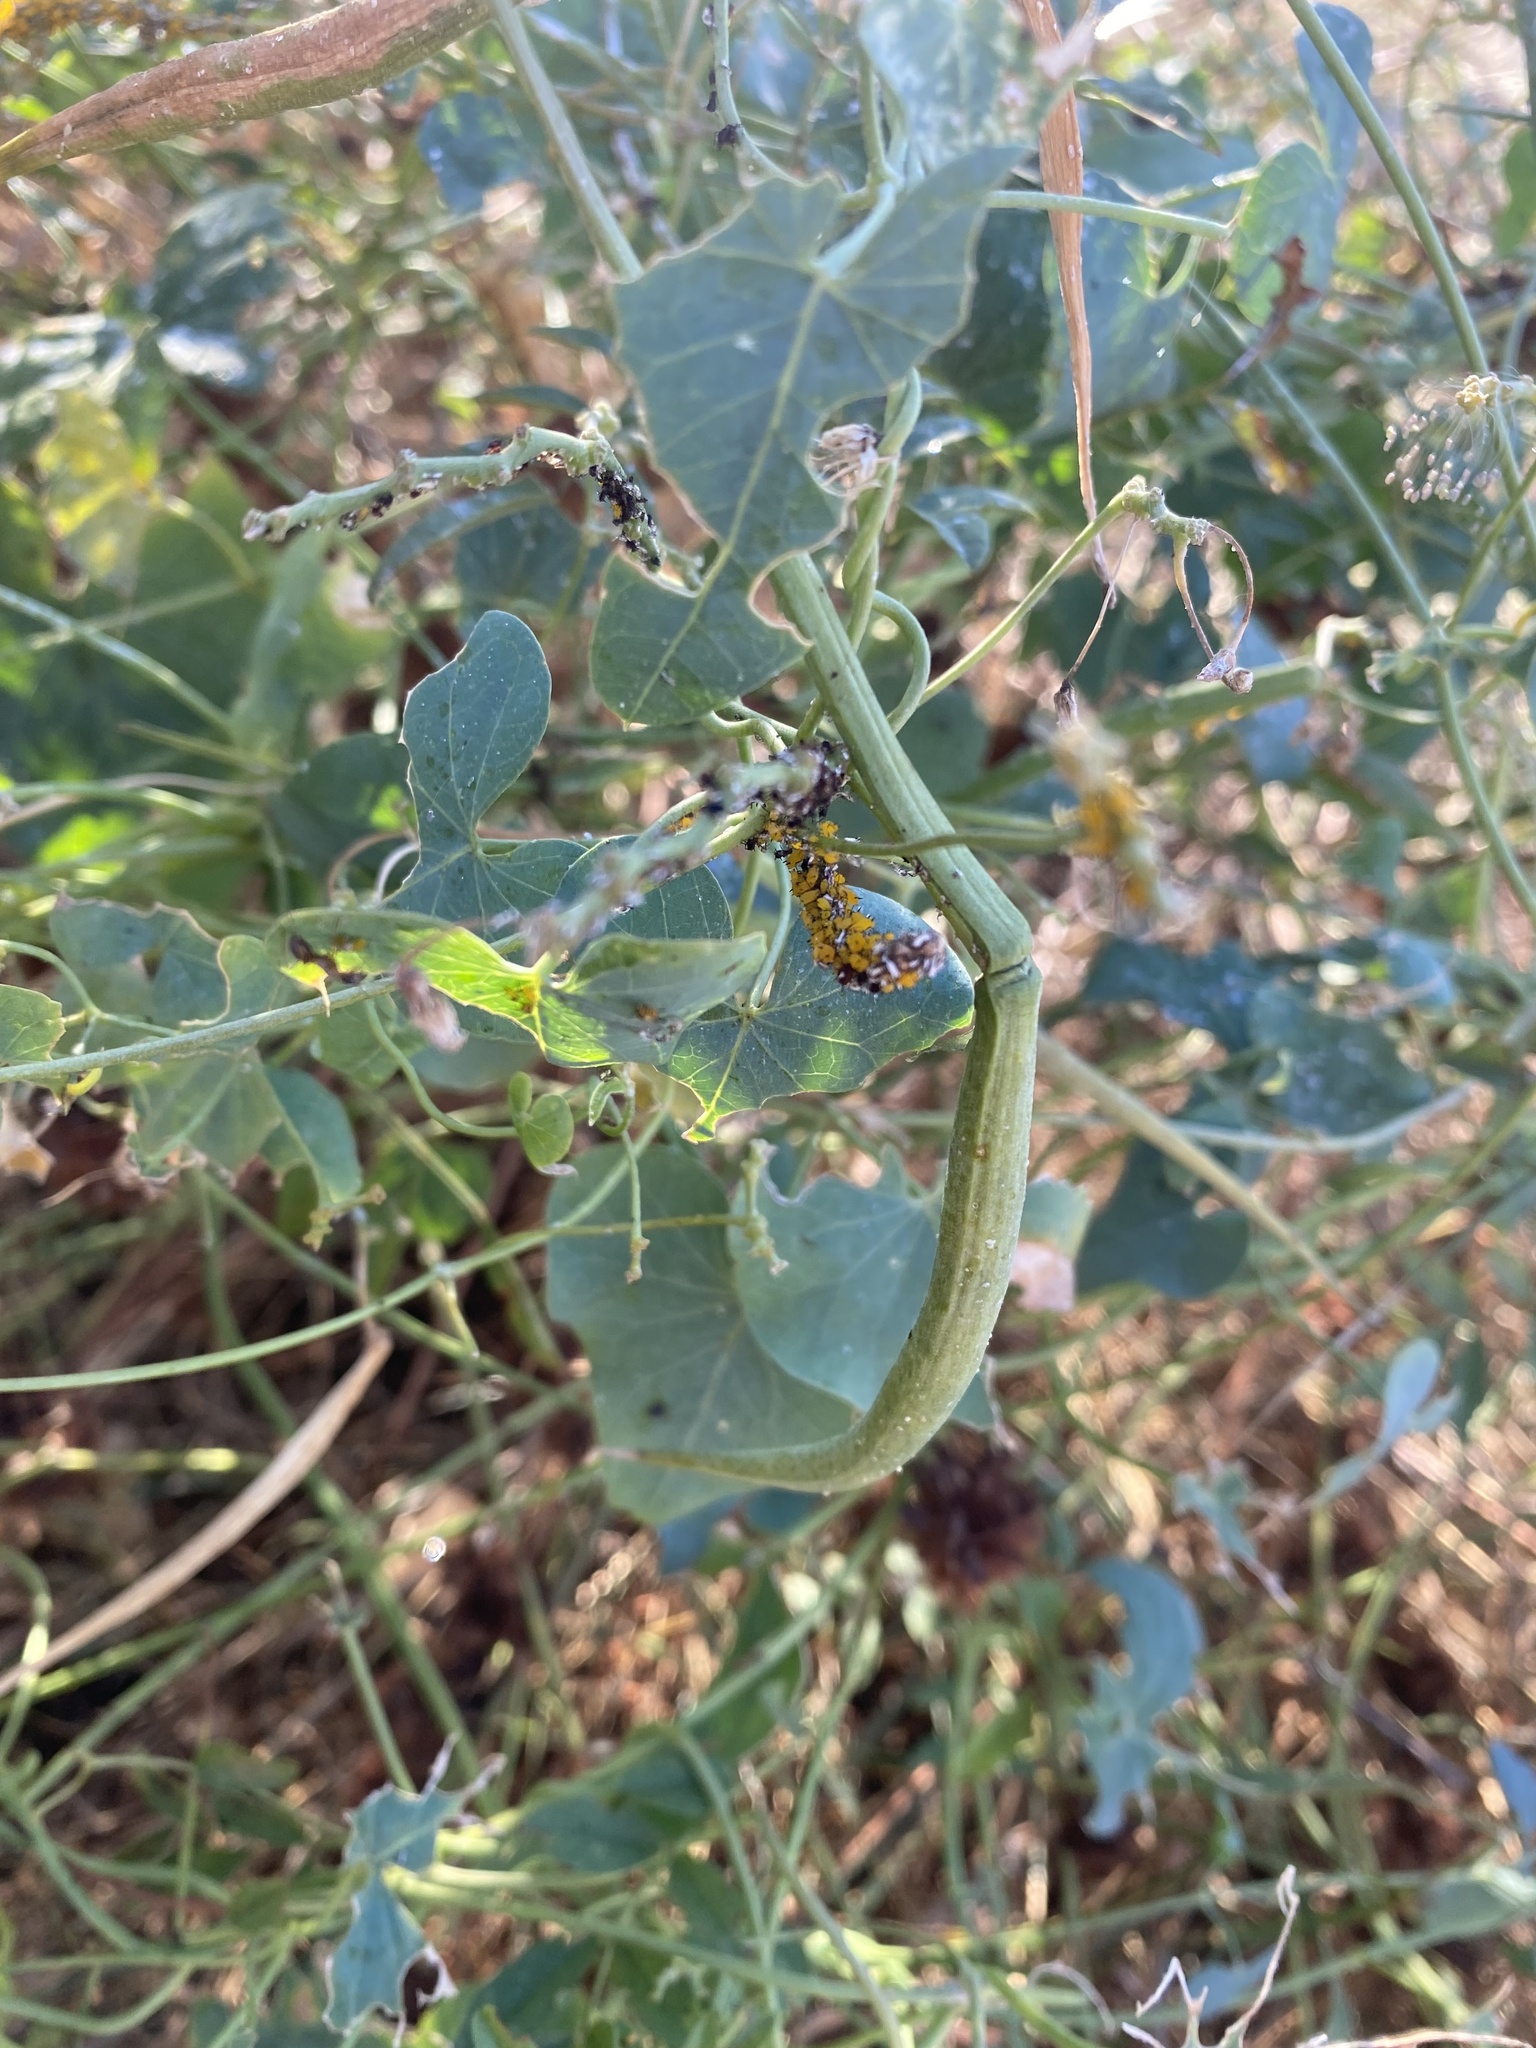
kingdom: Plantae
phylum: Tracheophyta
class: Magnoliopsida
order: Gentianales
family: Apocynaceae
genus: Cynanchum
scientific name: Cynanchum acutum
